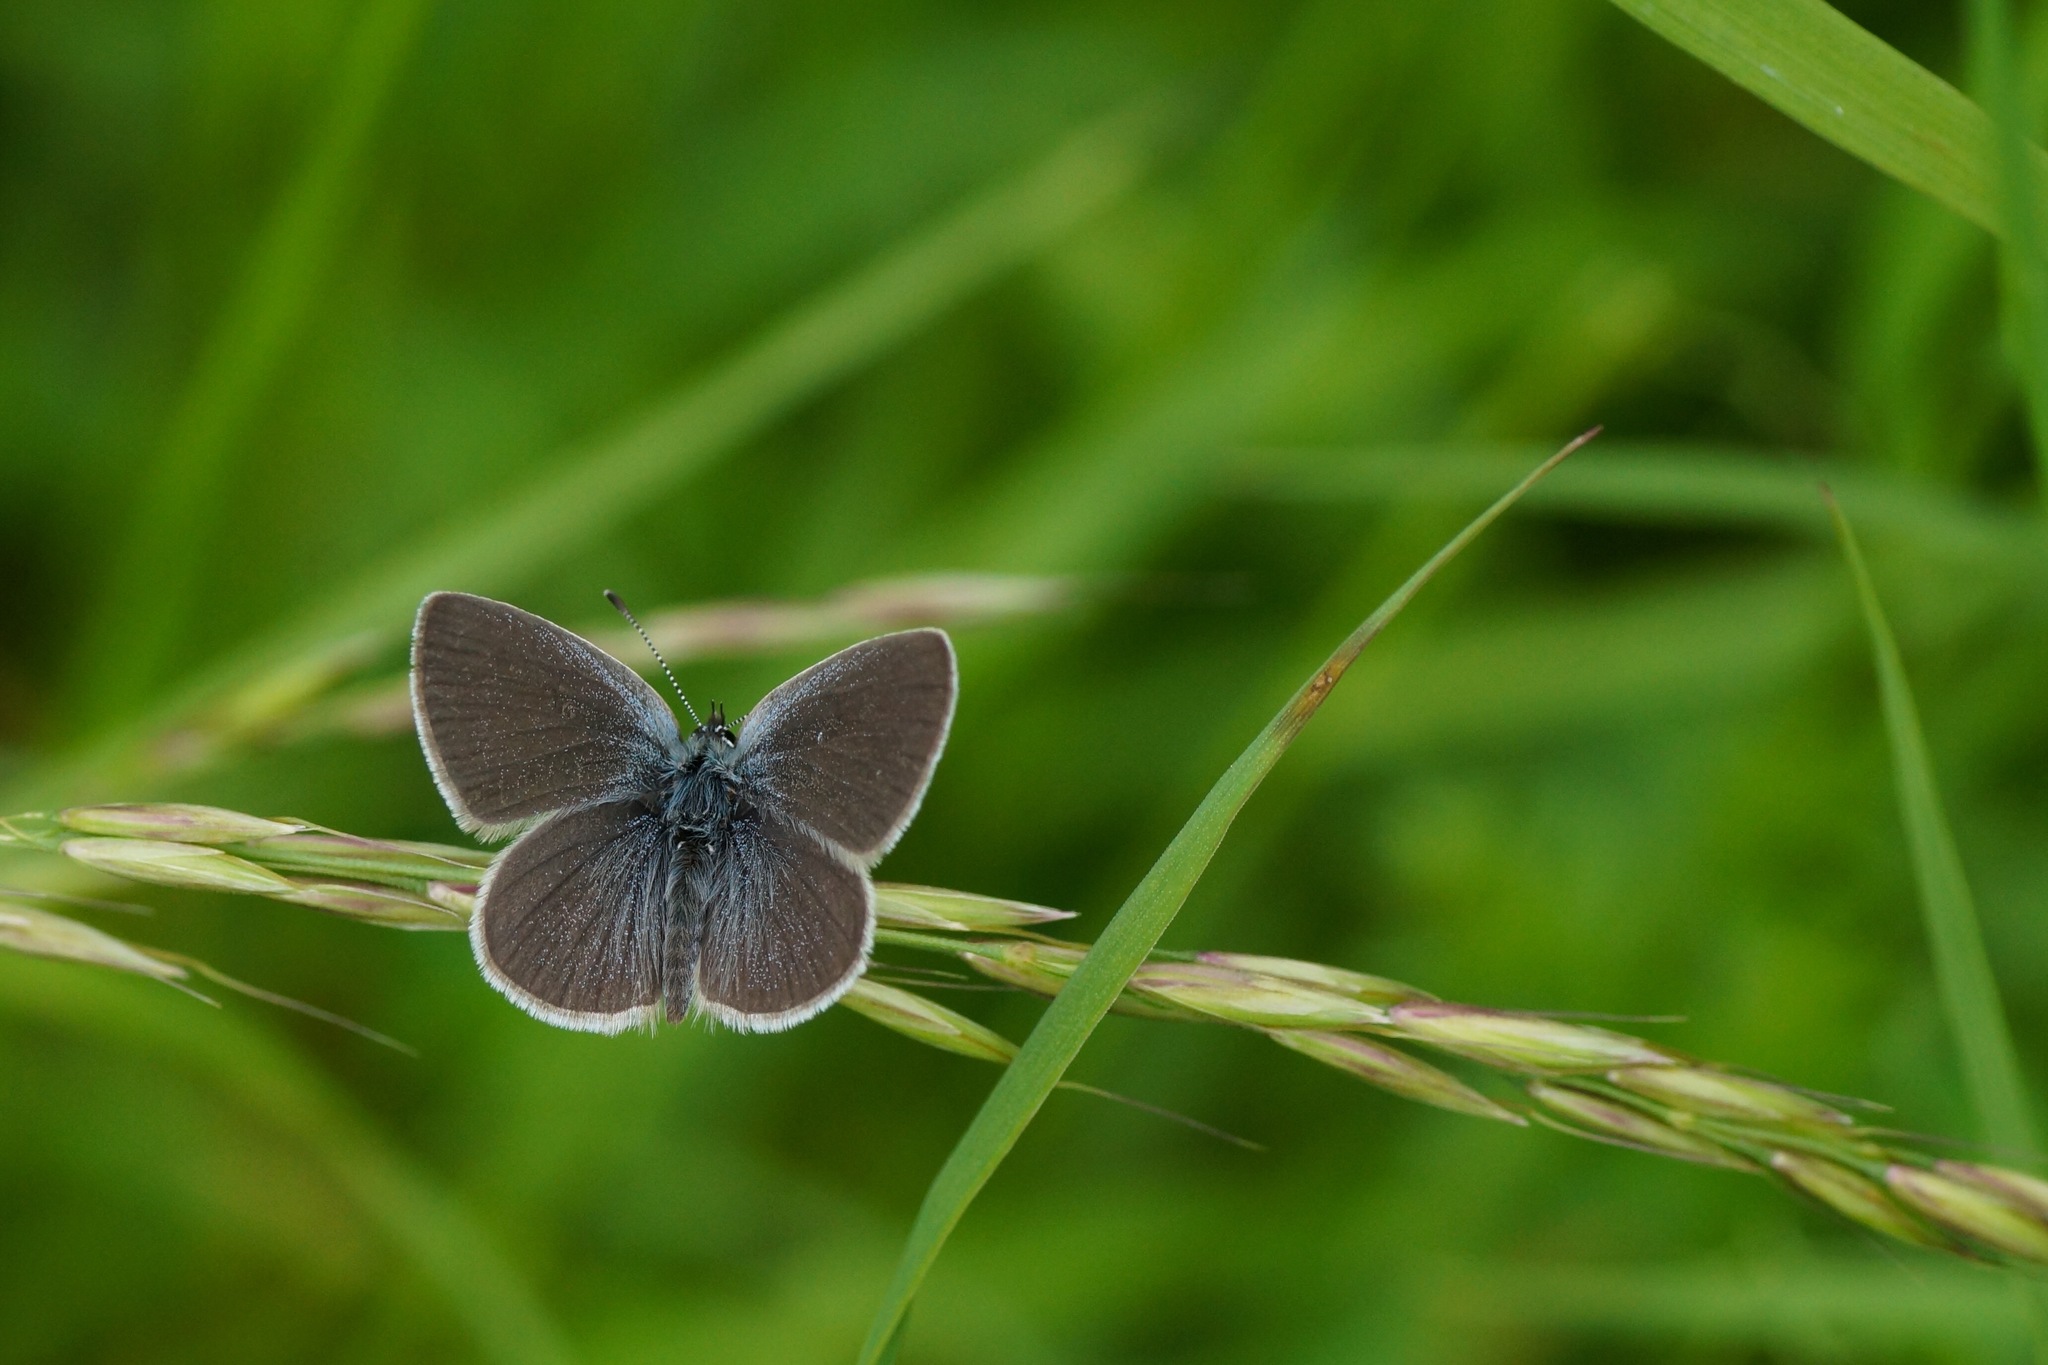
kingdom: Animalia
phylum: Arthropoda
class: Insecta
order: Lepidoptera
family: Lycaenidae
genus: Cupido
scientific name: Cupido minimus
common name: Small blue
